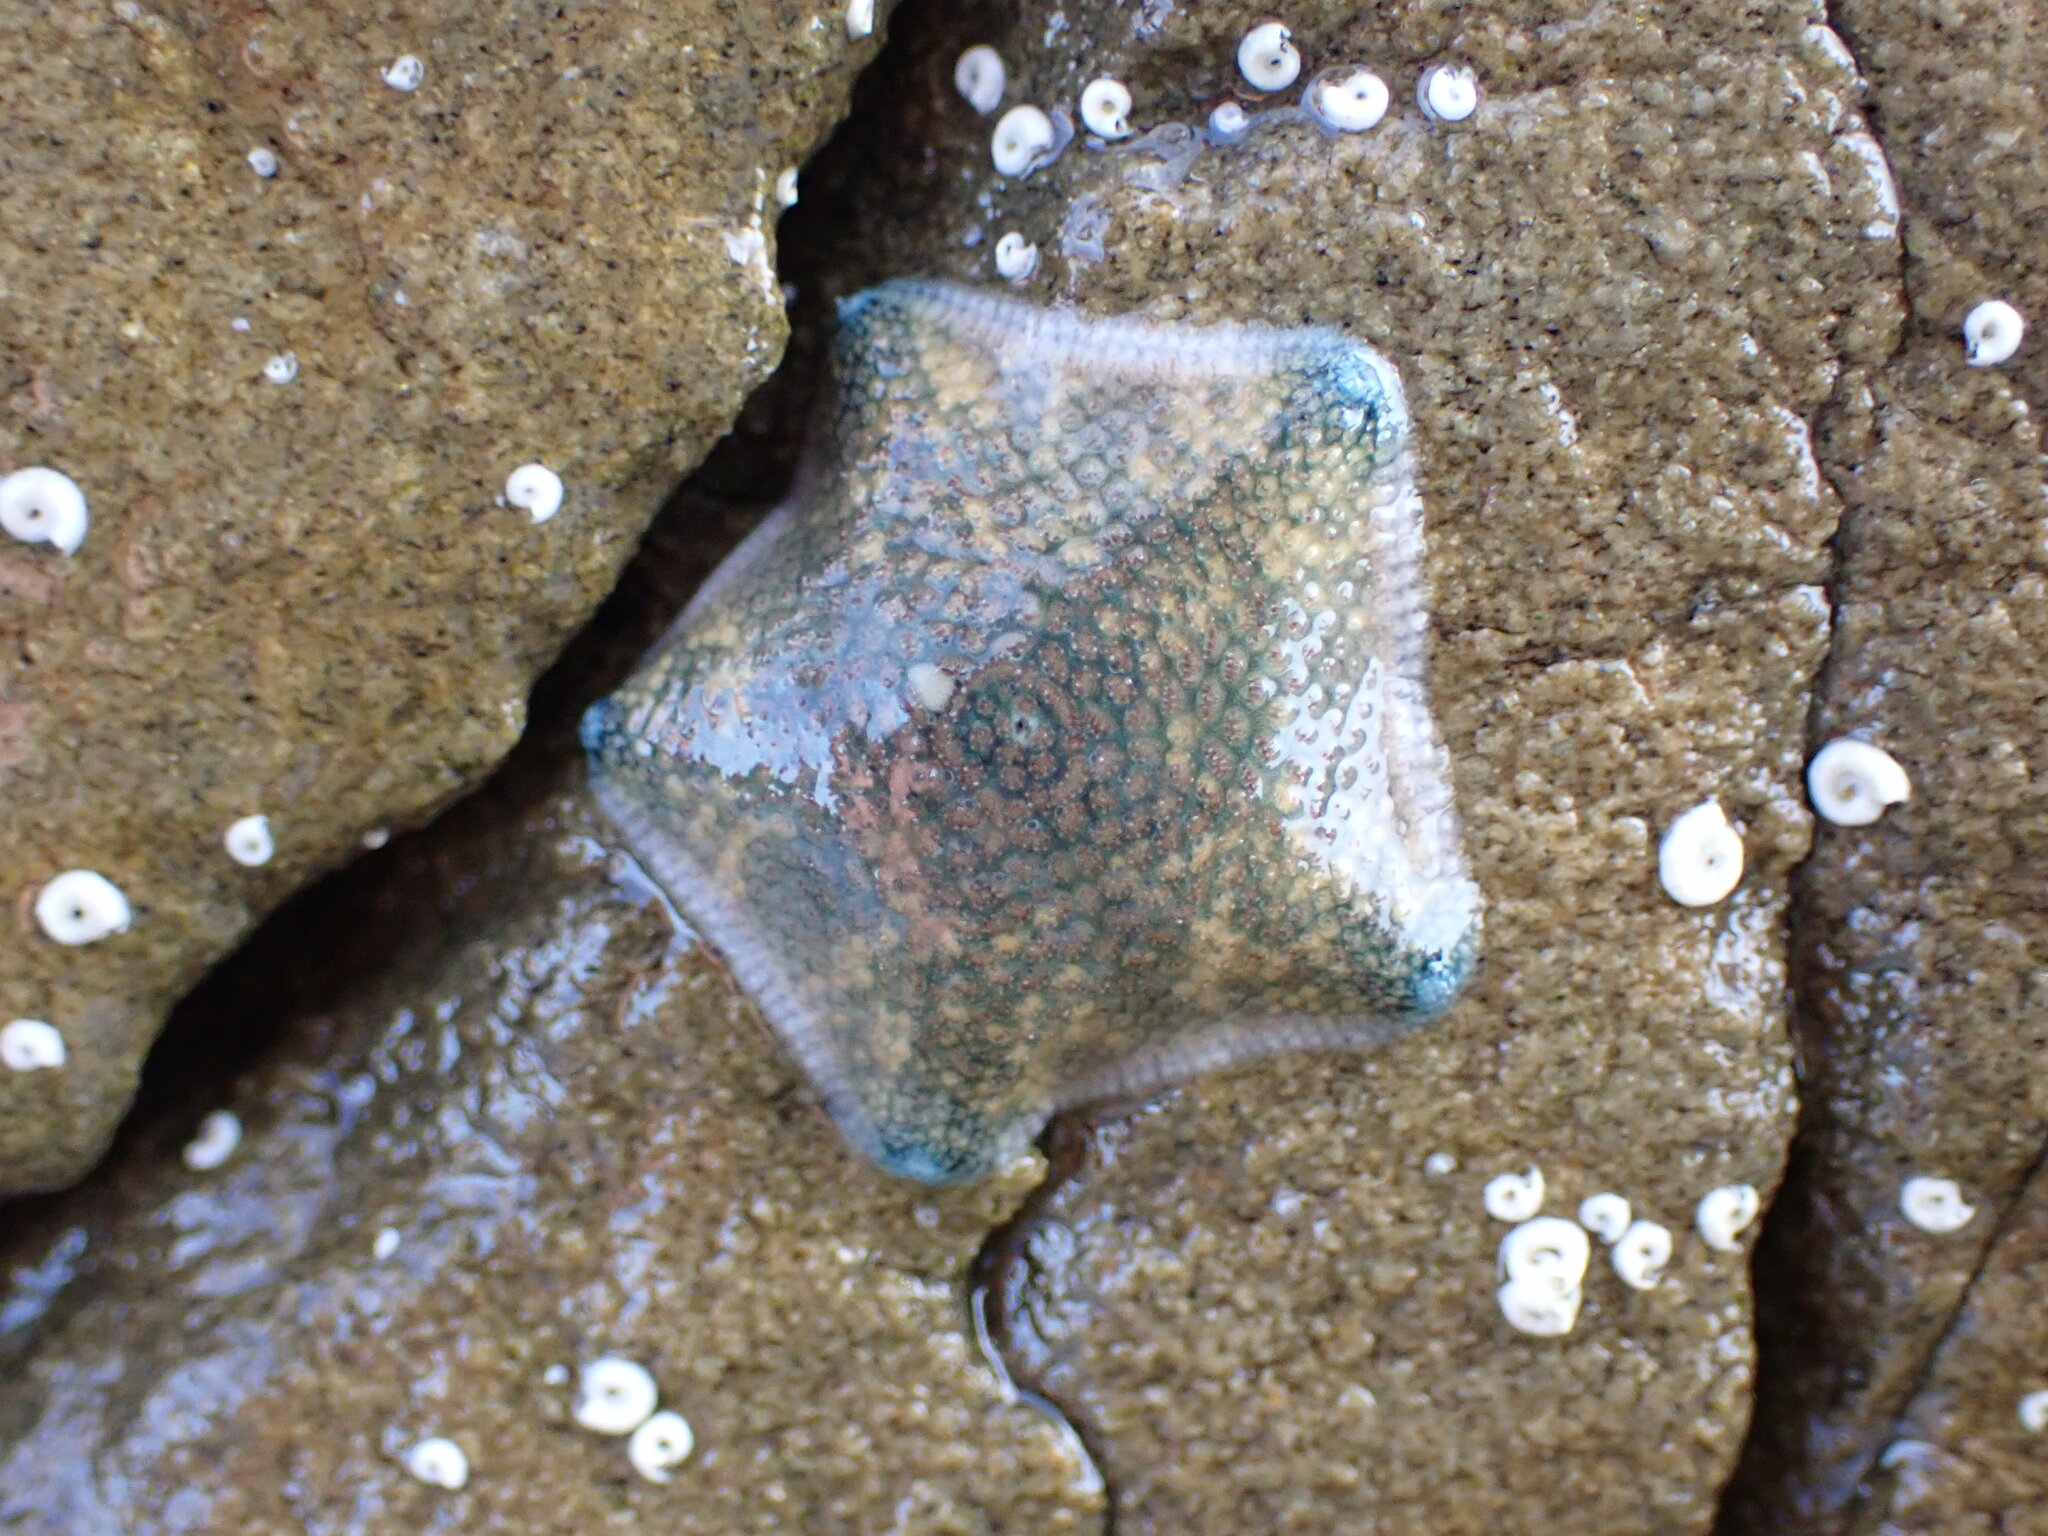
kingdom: Animalia
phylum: Echinodermata
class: Asteroidea
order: Valvatida
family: Asterinidae
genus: Patiriella
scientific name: Patiriella regularis
